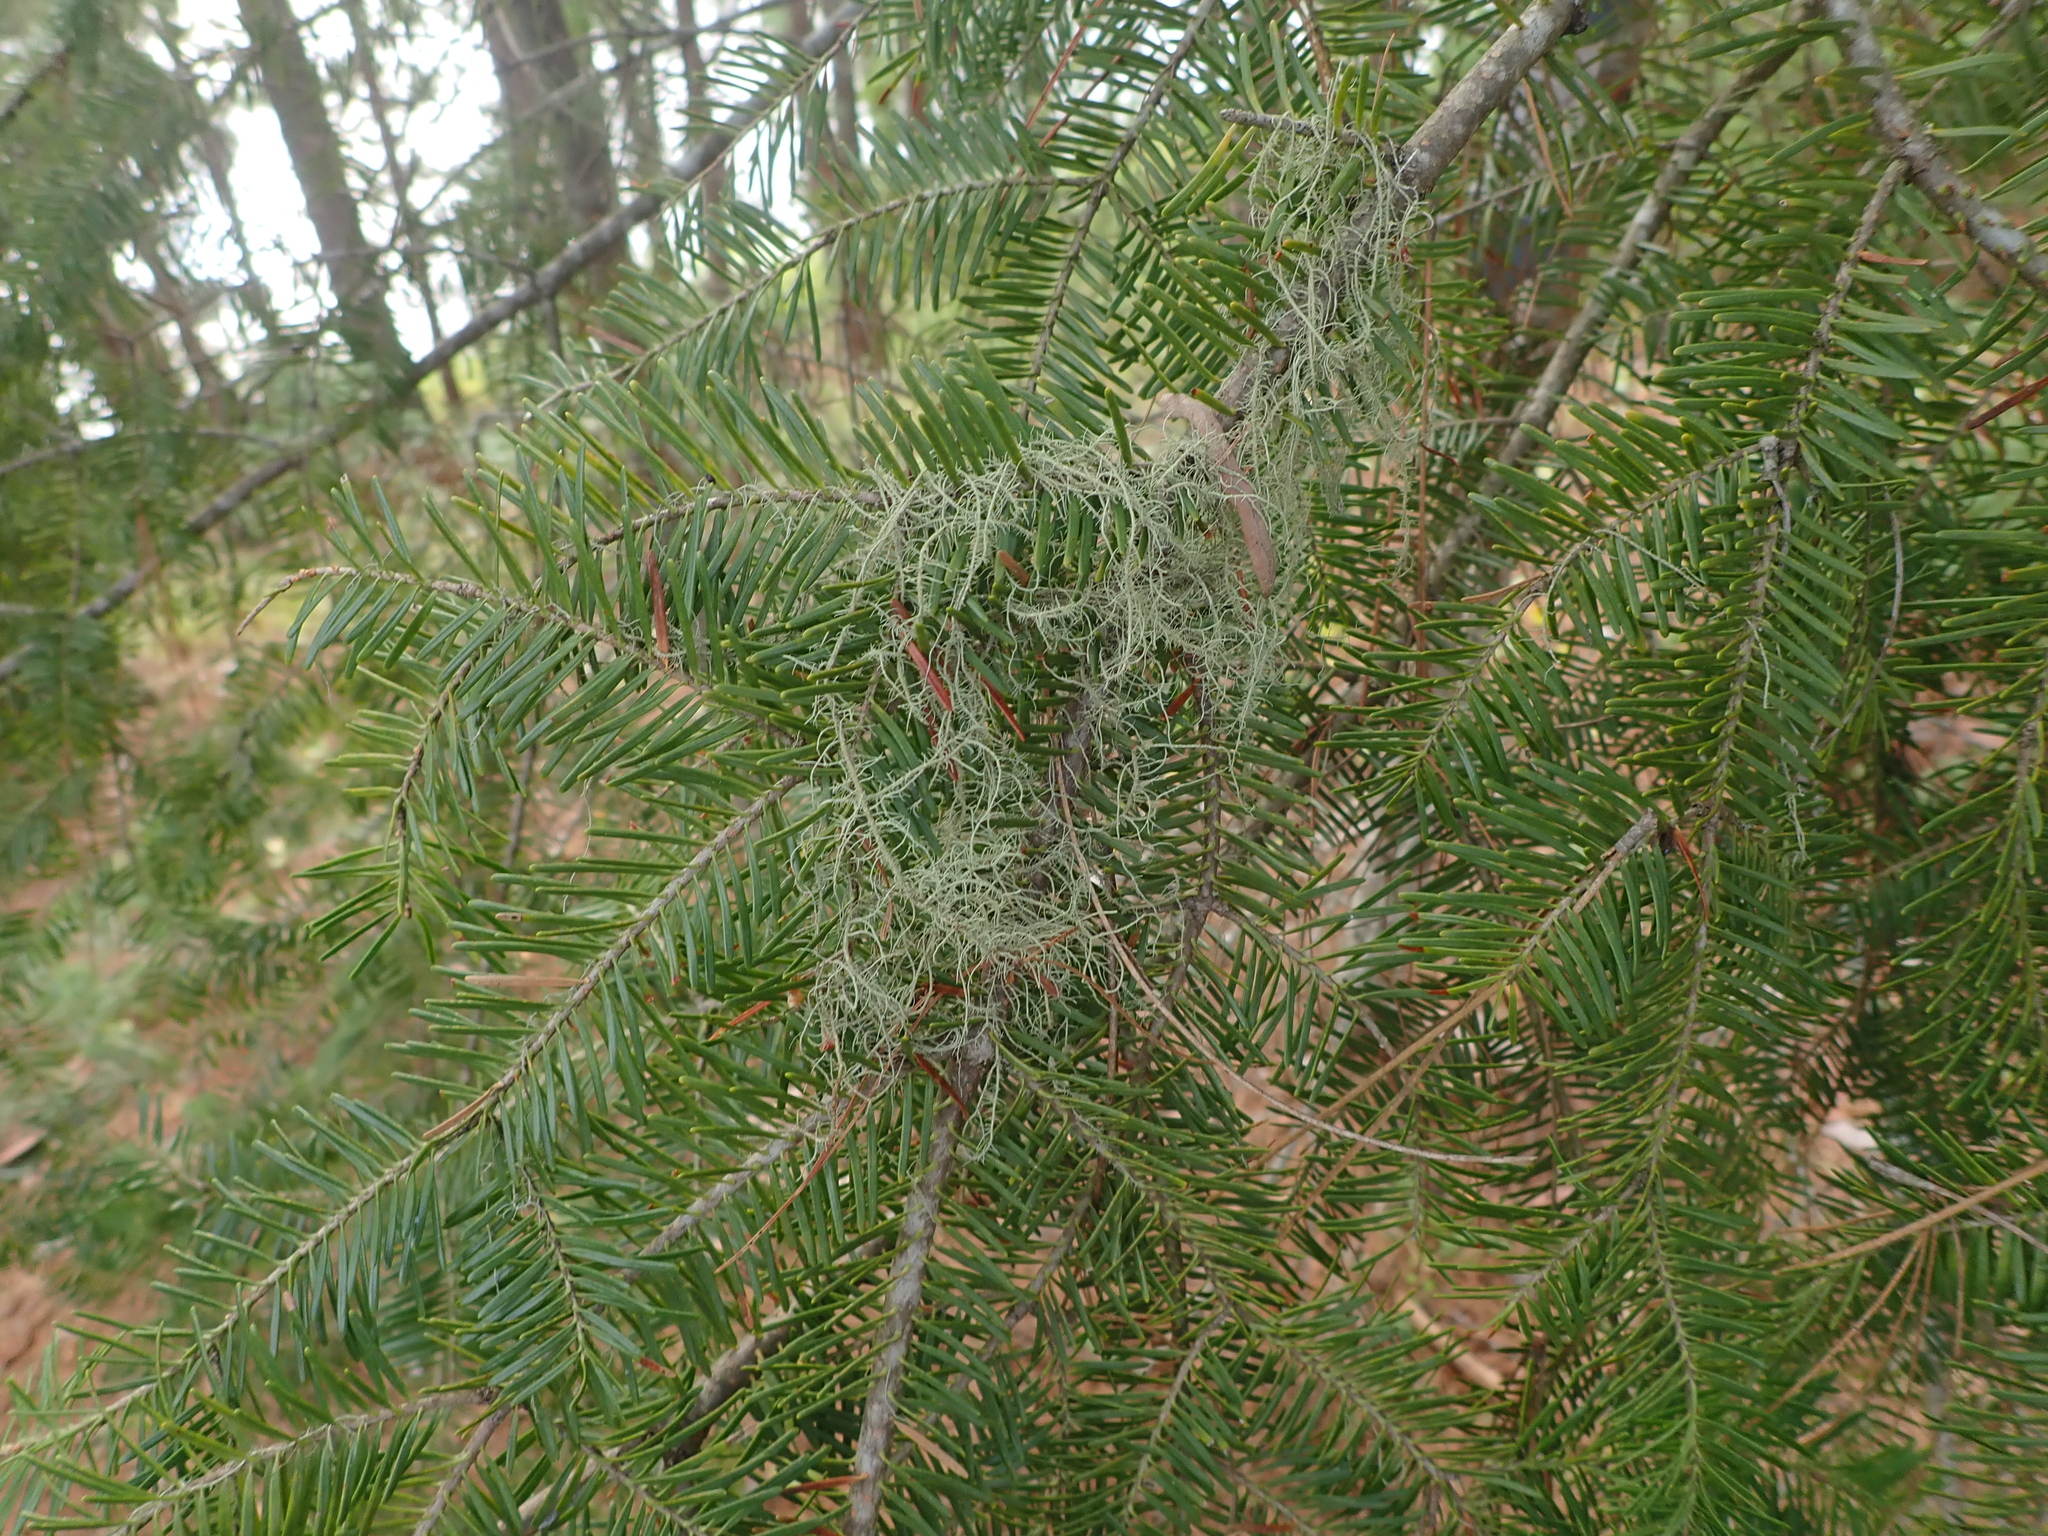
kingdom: Plantae
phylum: Tracheophyta
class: Pinopsida
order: Pinales
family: Pinaceae
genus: Abies
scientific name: Abies balsamea
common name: Balsam fir
